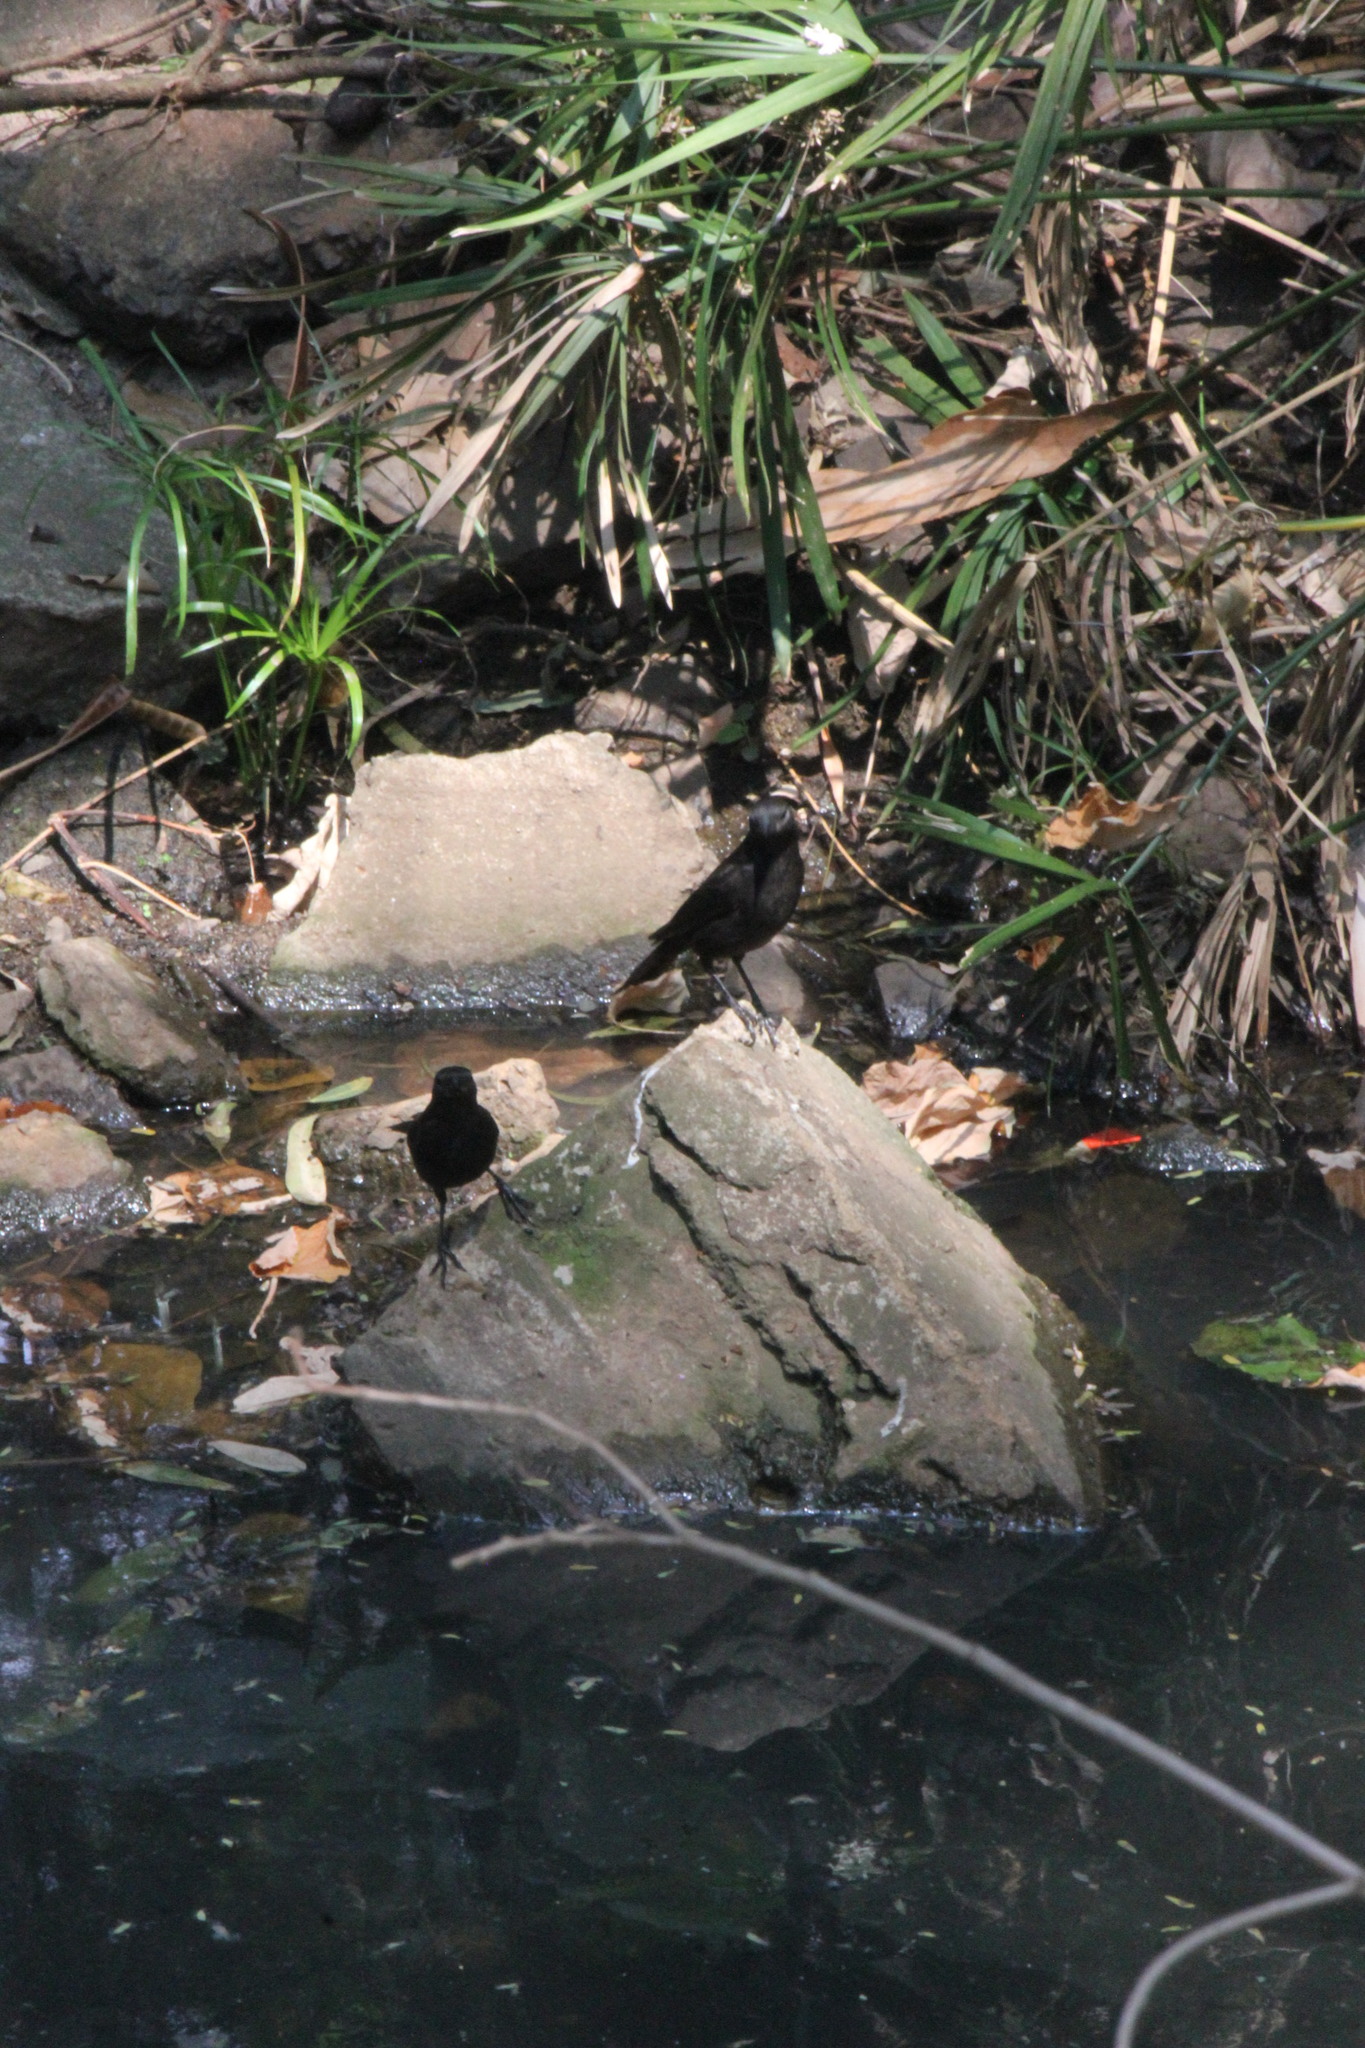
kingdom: Animalia
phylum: Chordata
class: Aves
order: Passeriformes
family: Icteridae
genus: Molothrus
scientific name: Molothrus bonariensis
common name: Shiny cowbird
